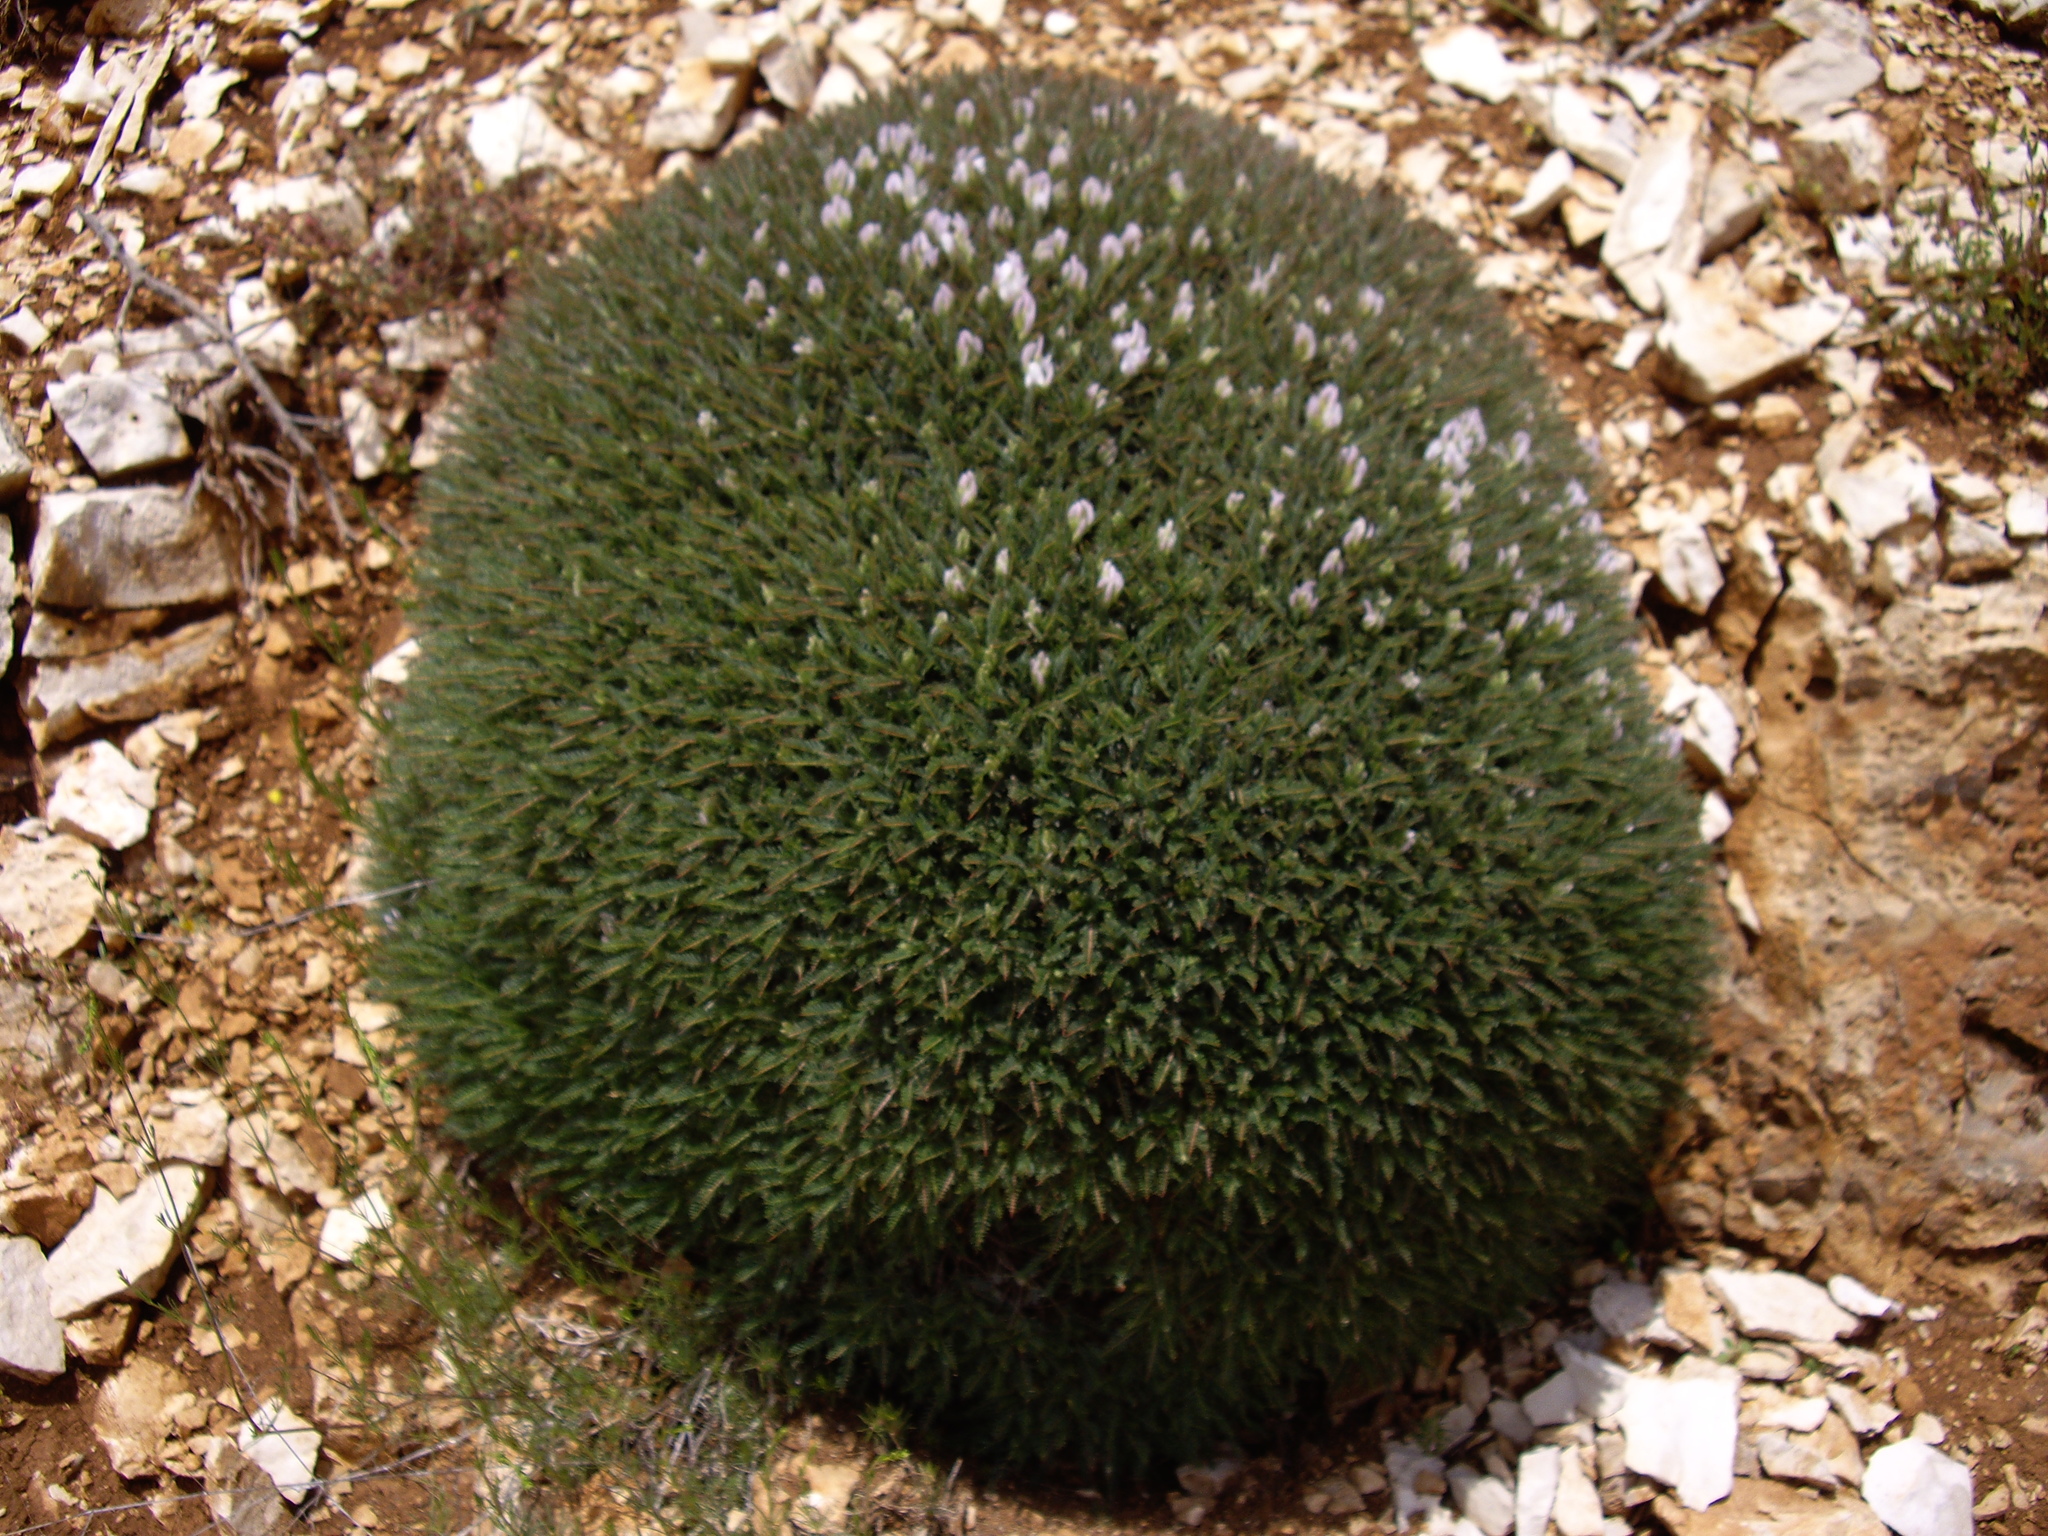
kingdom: Plantae
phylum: Tracheophyta
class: Magnoliopsida
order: Fabales
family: Fabaceae
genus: Astragalus
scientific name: Astragalus angustifolius
